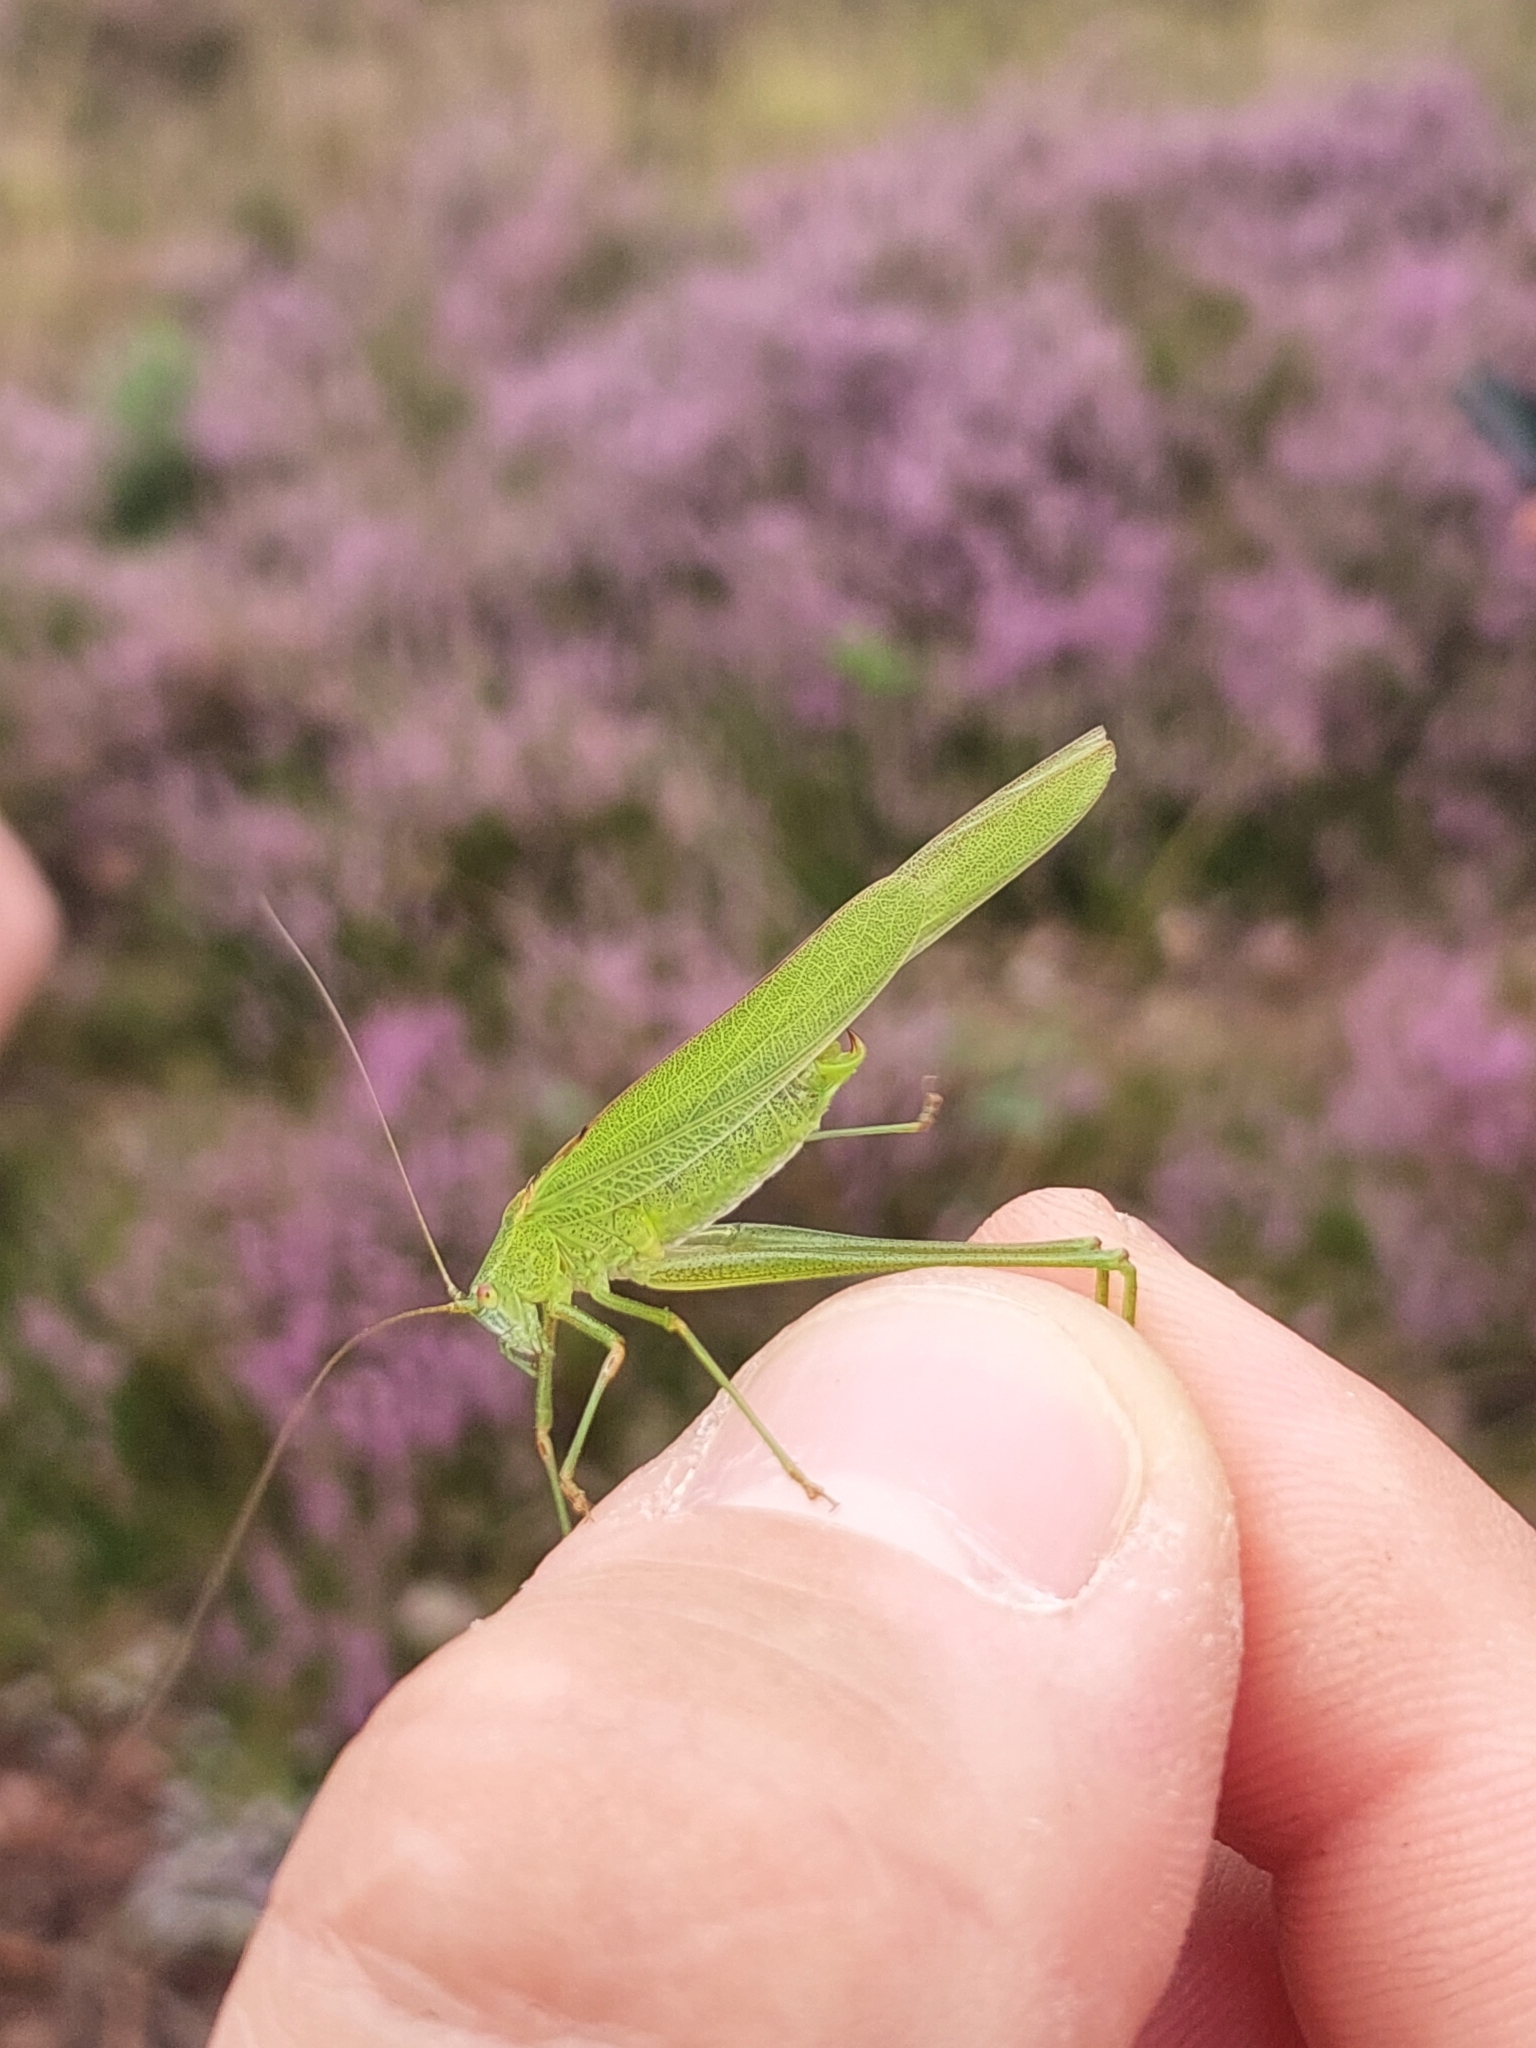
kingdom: Animalia
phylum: Arthropoda
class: Insecta
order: Orthoptera
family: Tettigoniidae
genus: Phaneroptera
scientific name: Phaneroptera falcata
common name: Sickle-bearing bush-cricket
